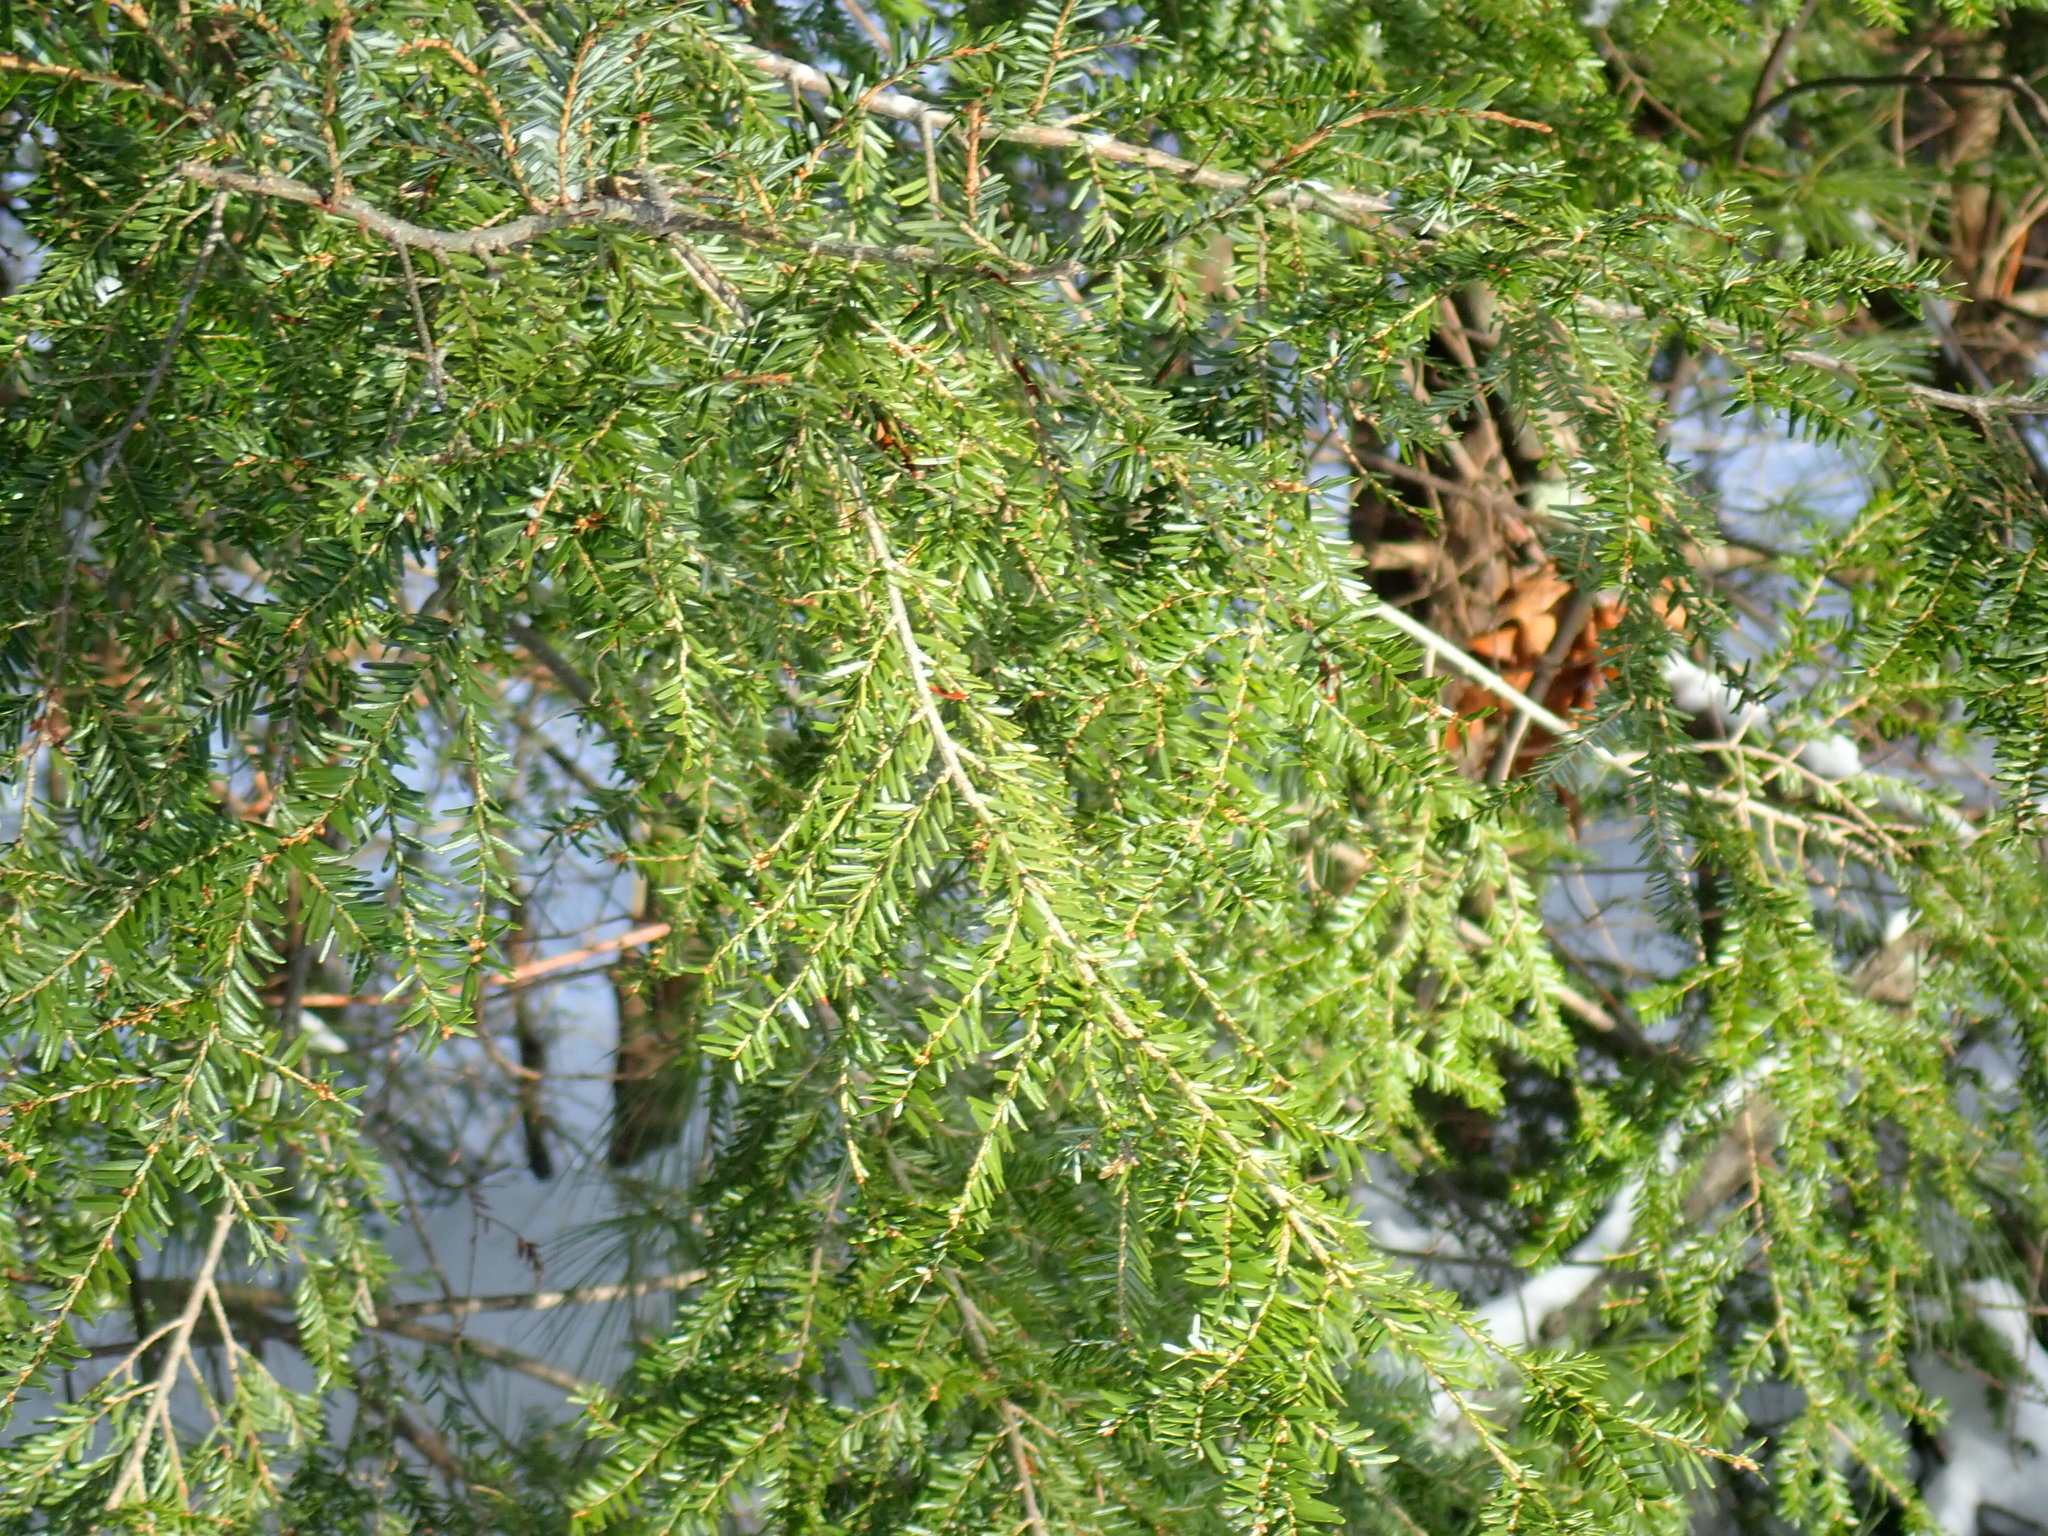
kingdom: Plantae
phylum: Tracheophyta
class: Pinopsida
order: Pinales
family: Pinaceae
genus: Tsuga
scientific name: Tsuga canadensis
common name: Eastern hemlock
